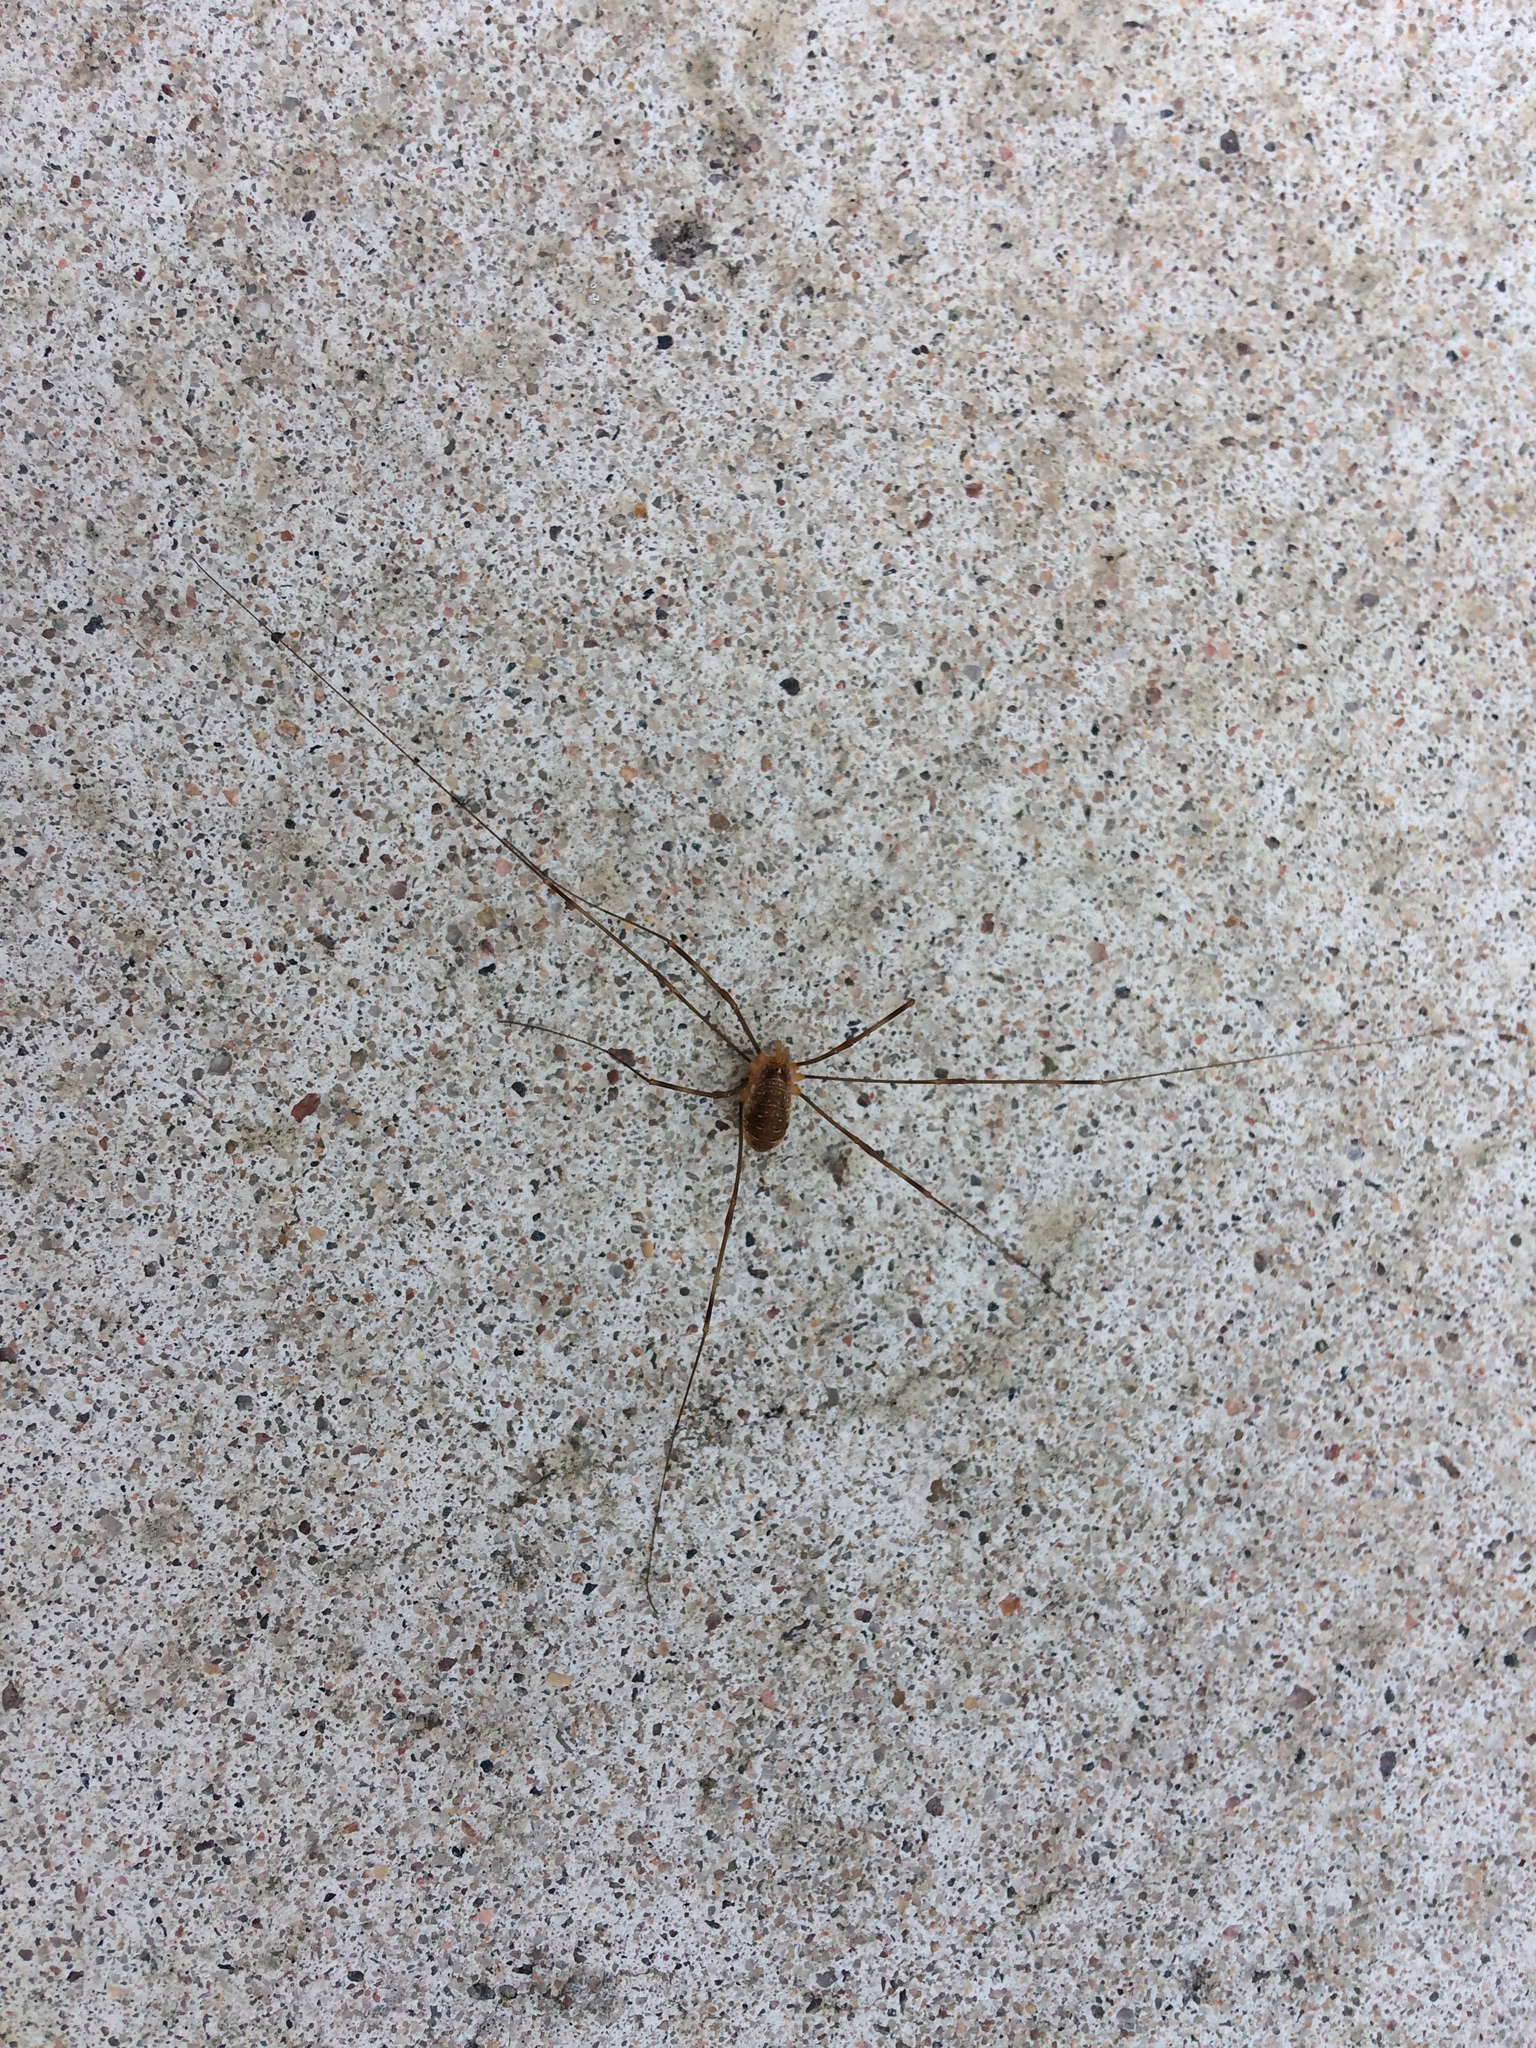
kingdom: Animalia
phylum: Arthropoda
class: Arachnida
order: Opiliones
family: Phalangiidae
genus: Opilio
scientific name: Opilio canestrinii
